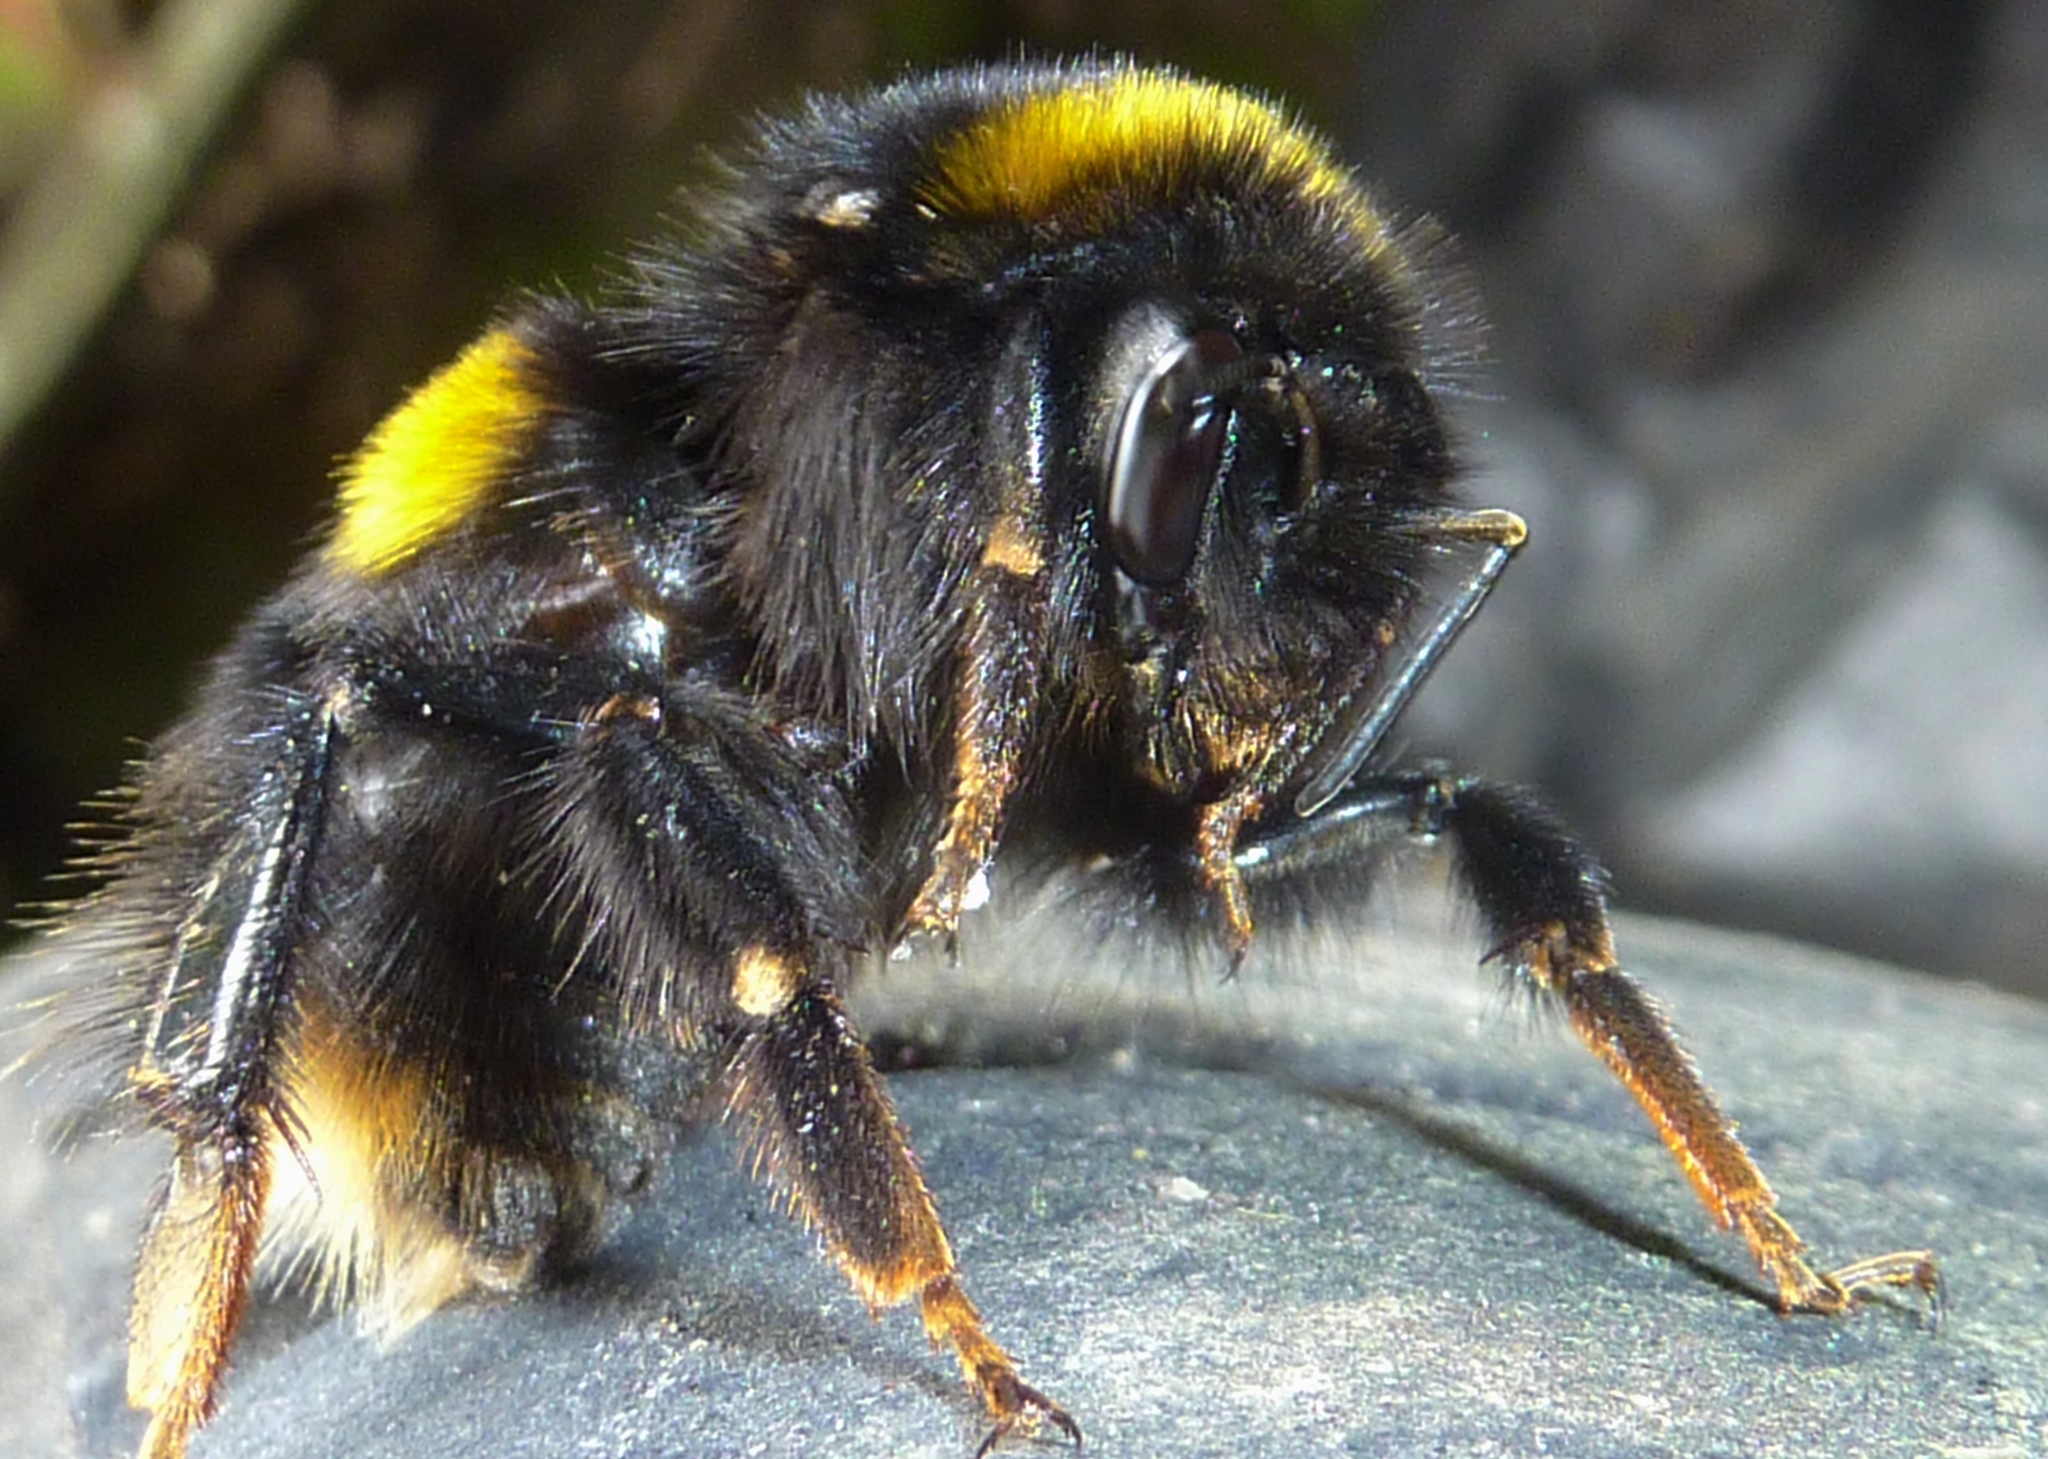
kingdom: Animalia
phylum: Arthropoda
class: Insecta
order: Hymenoptera
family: Apidae
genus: Bombus
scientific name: Bombus terrestris
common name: Buff-tailed bumblebee
